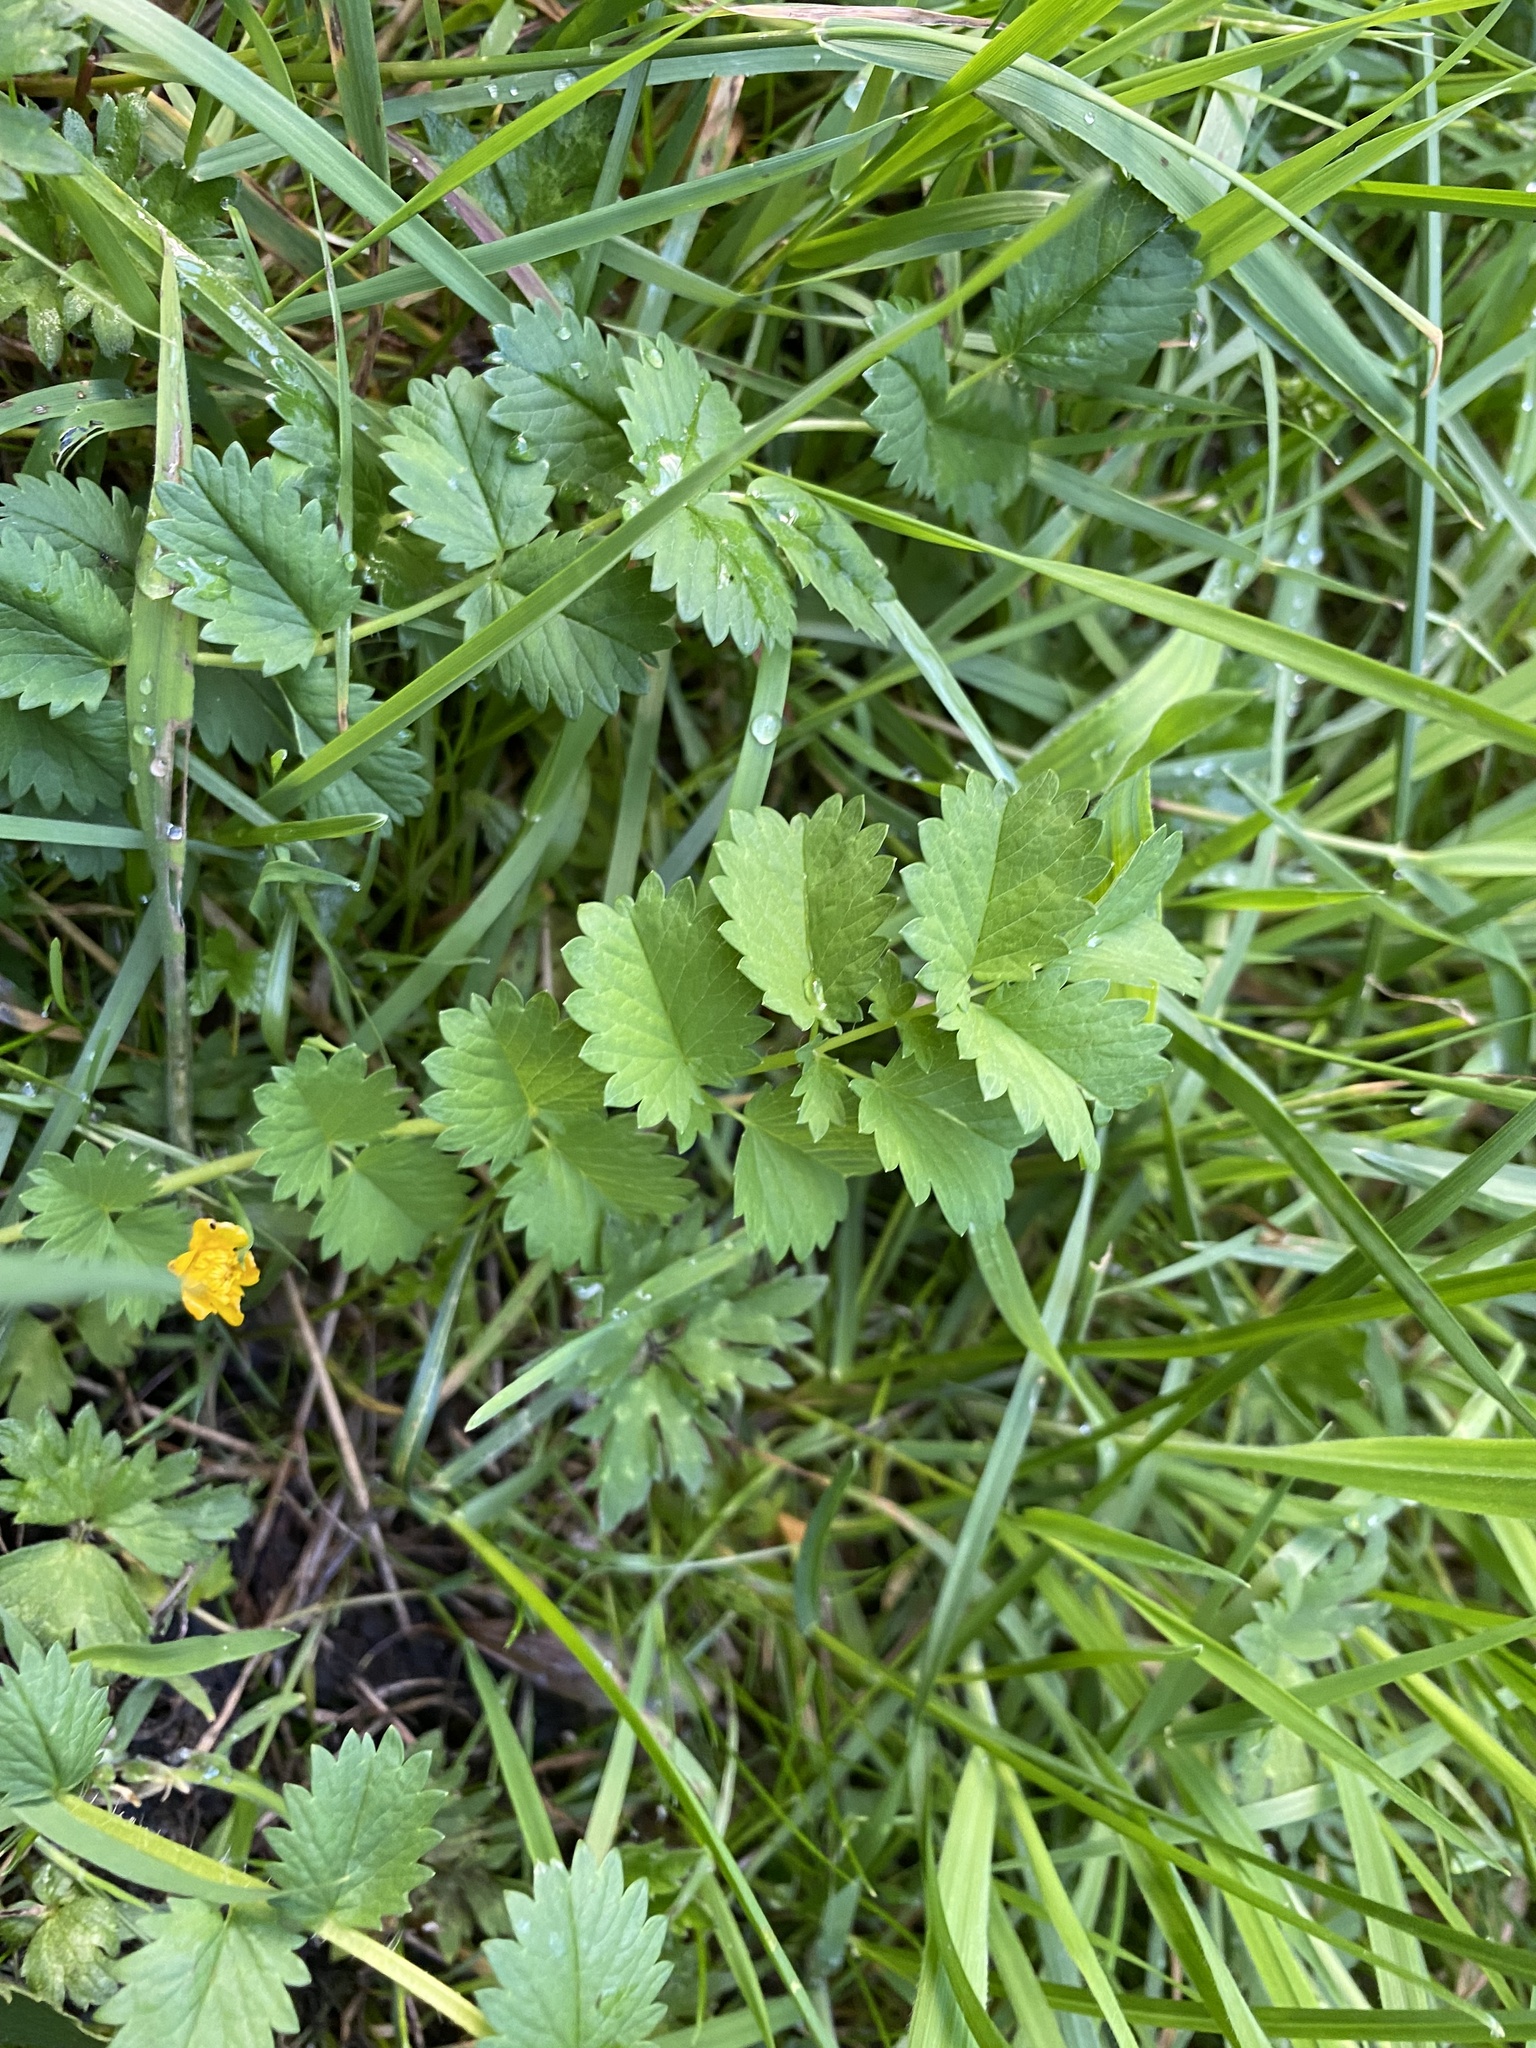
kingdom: Plantae
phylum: Tracheophyta
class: Magnoliopsida
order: Rosales
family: Rosaceae
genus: Poterium
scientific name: Poterium sanguisorba
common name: Salad burnet
